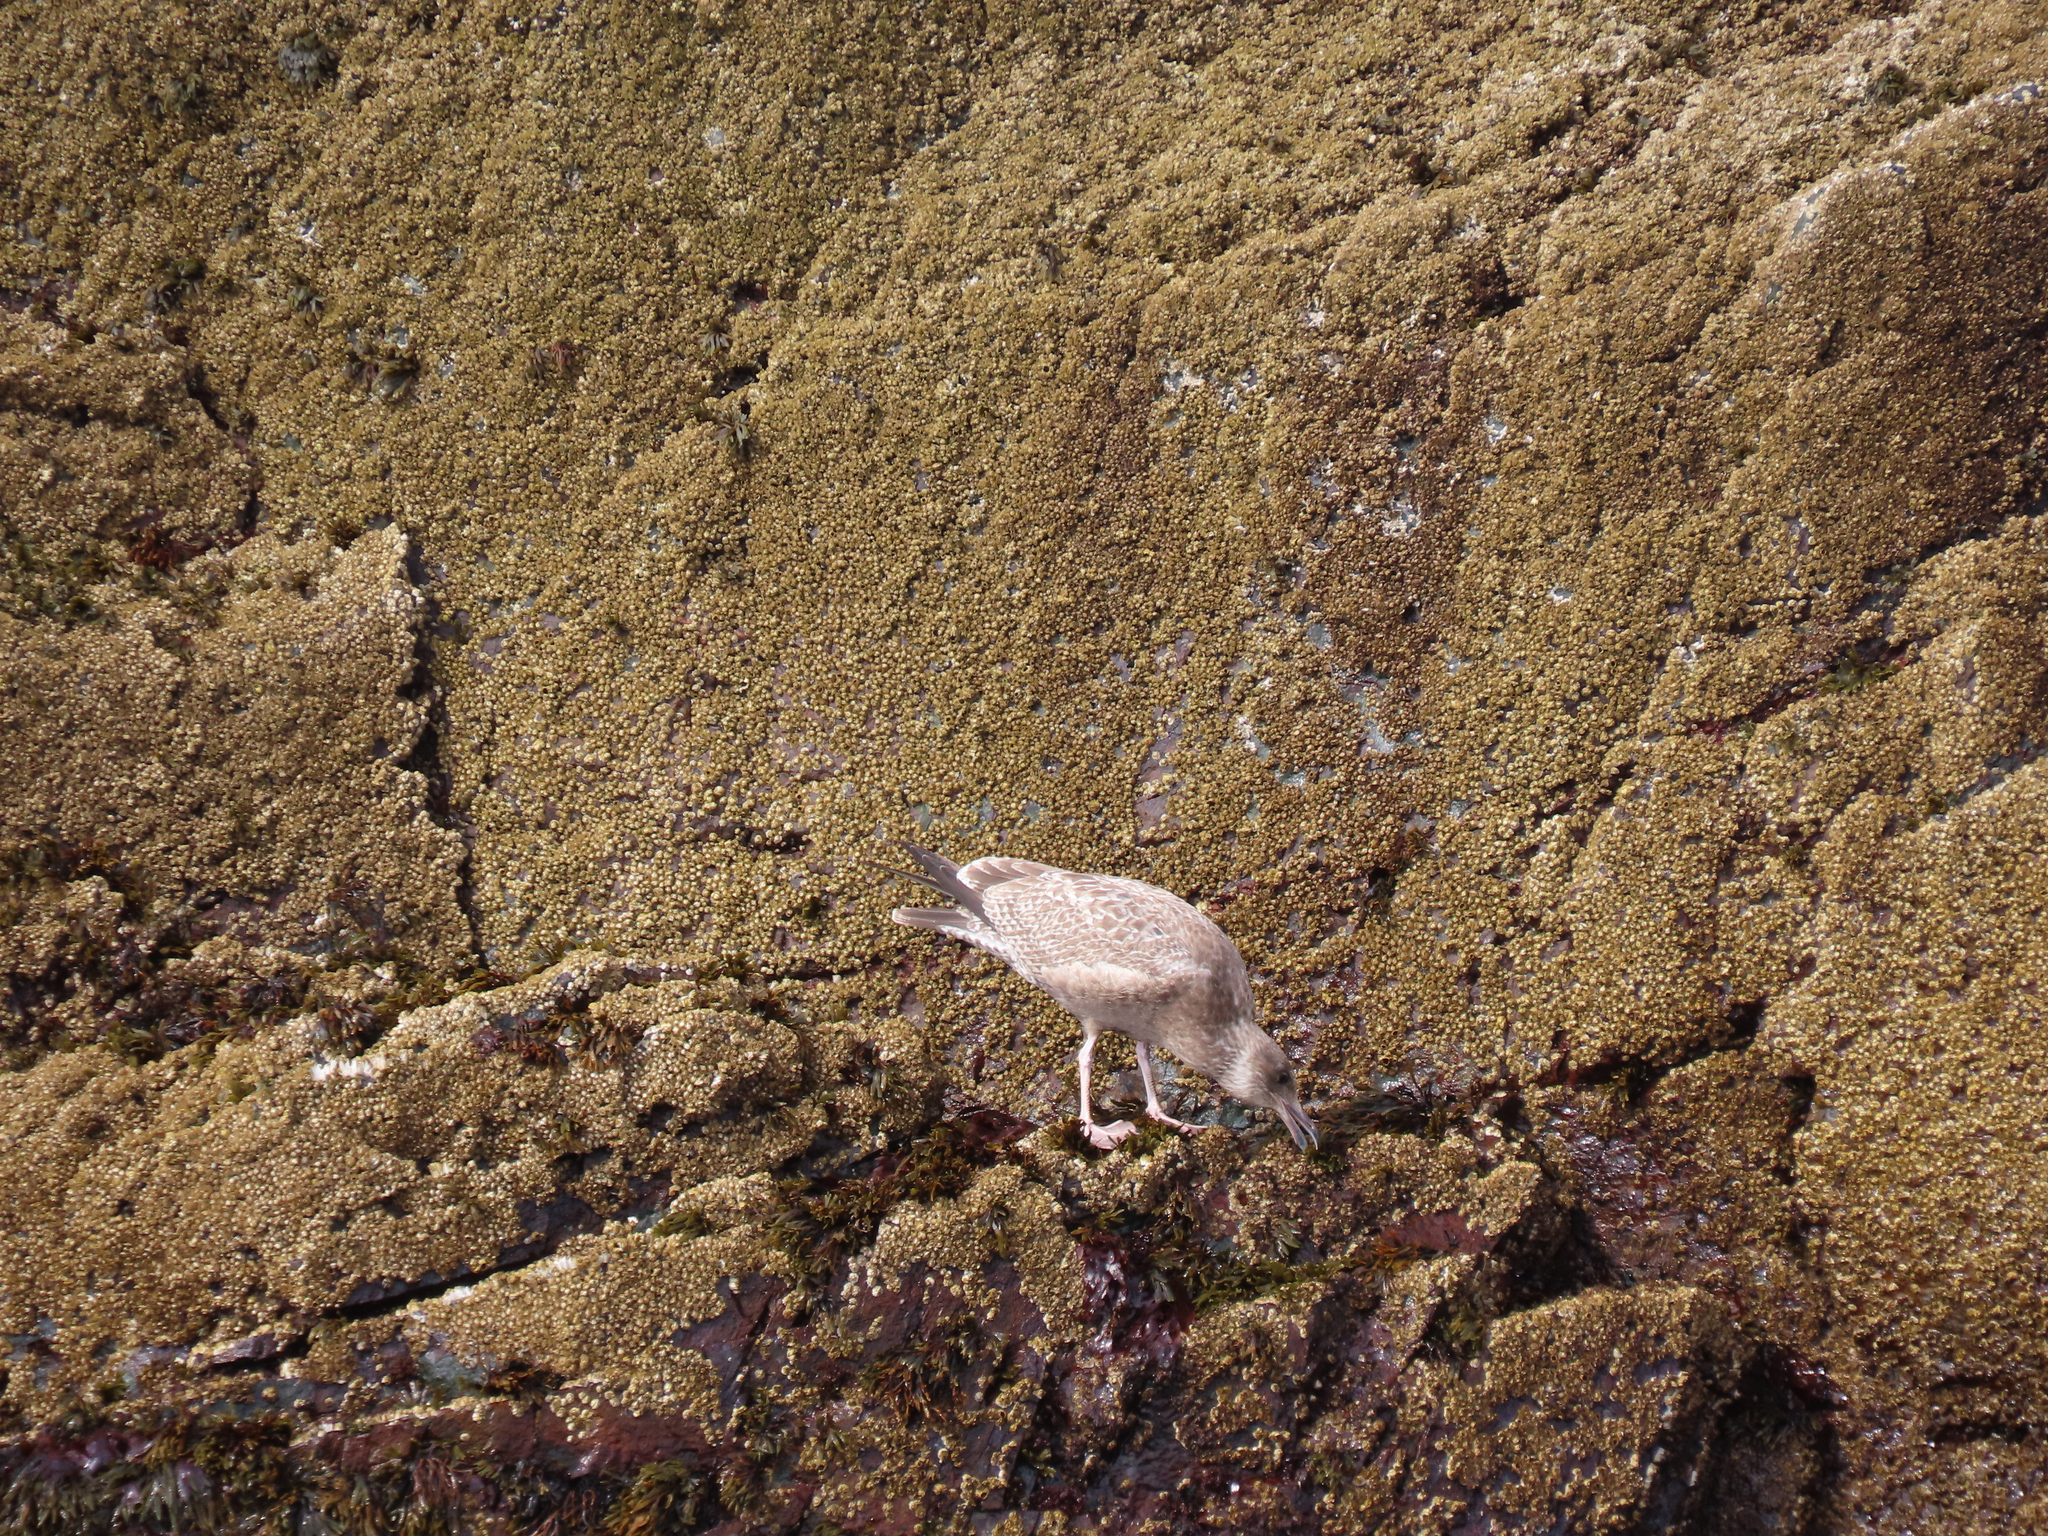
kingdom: Animalia
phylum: Chordata
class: Aves
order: Charadriiformes
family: Laridae
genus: Larus
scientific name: Larus argentatus
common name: Herring gull
